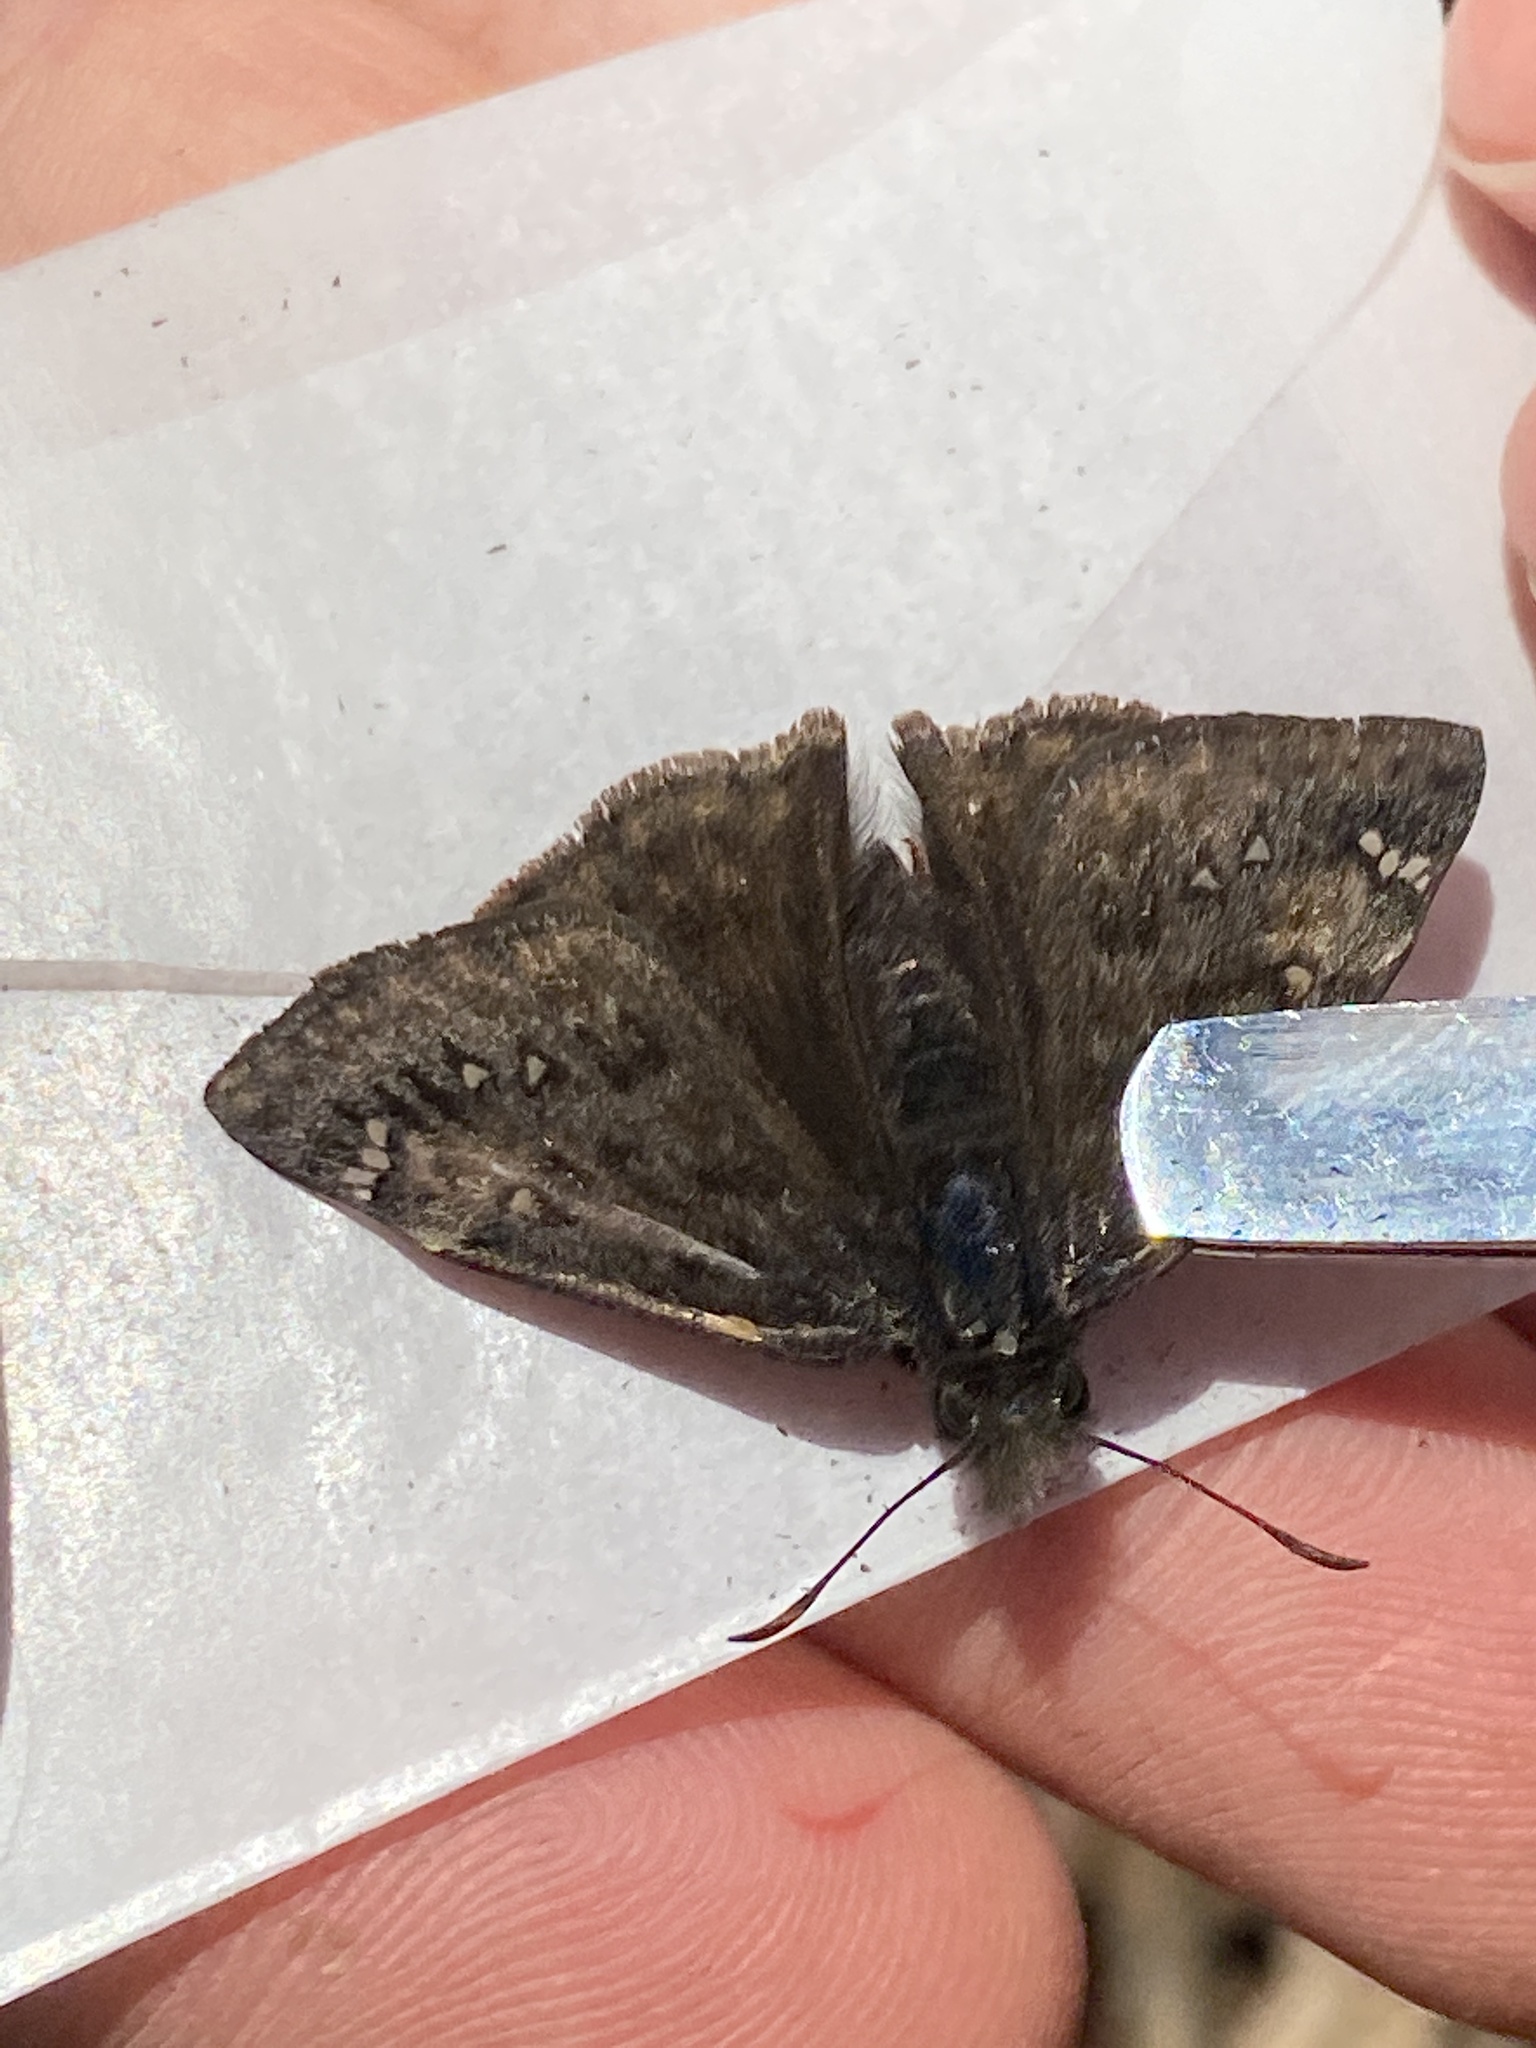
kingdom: Animalia
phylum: Arthropoda
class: Insecta
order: Lepidoptera
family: Hesperiidae
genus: Erynnis
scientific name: Erynnis juvenalis
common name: Juvenal's duskywing
